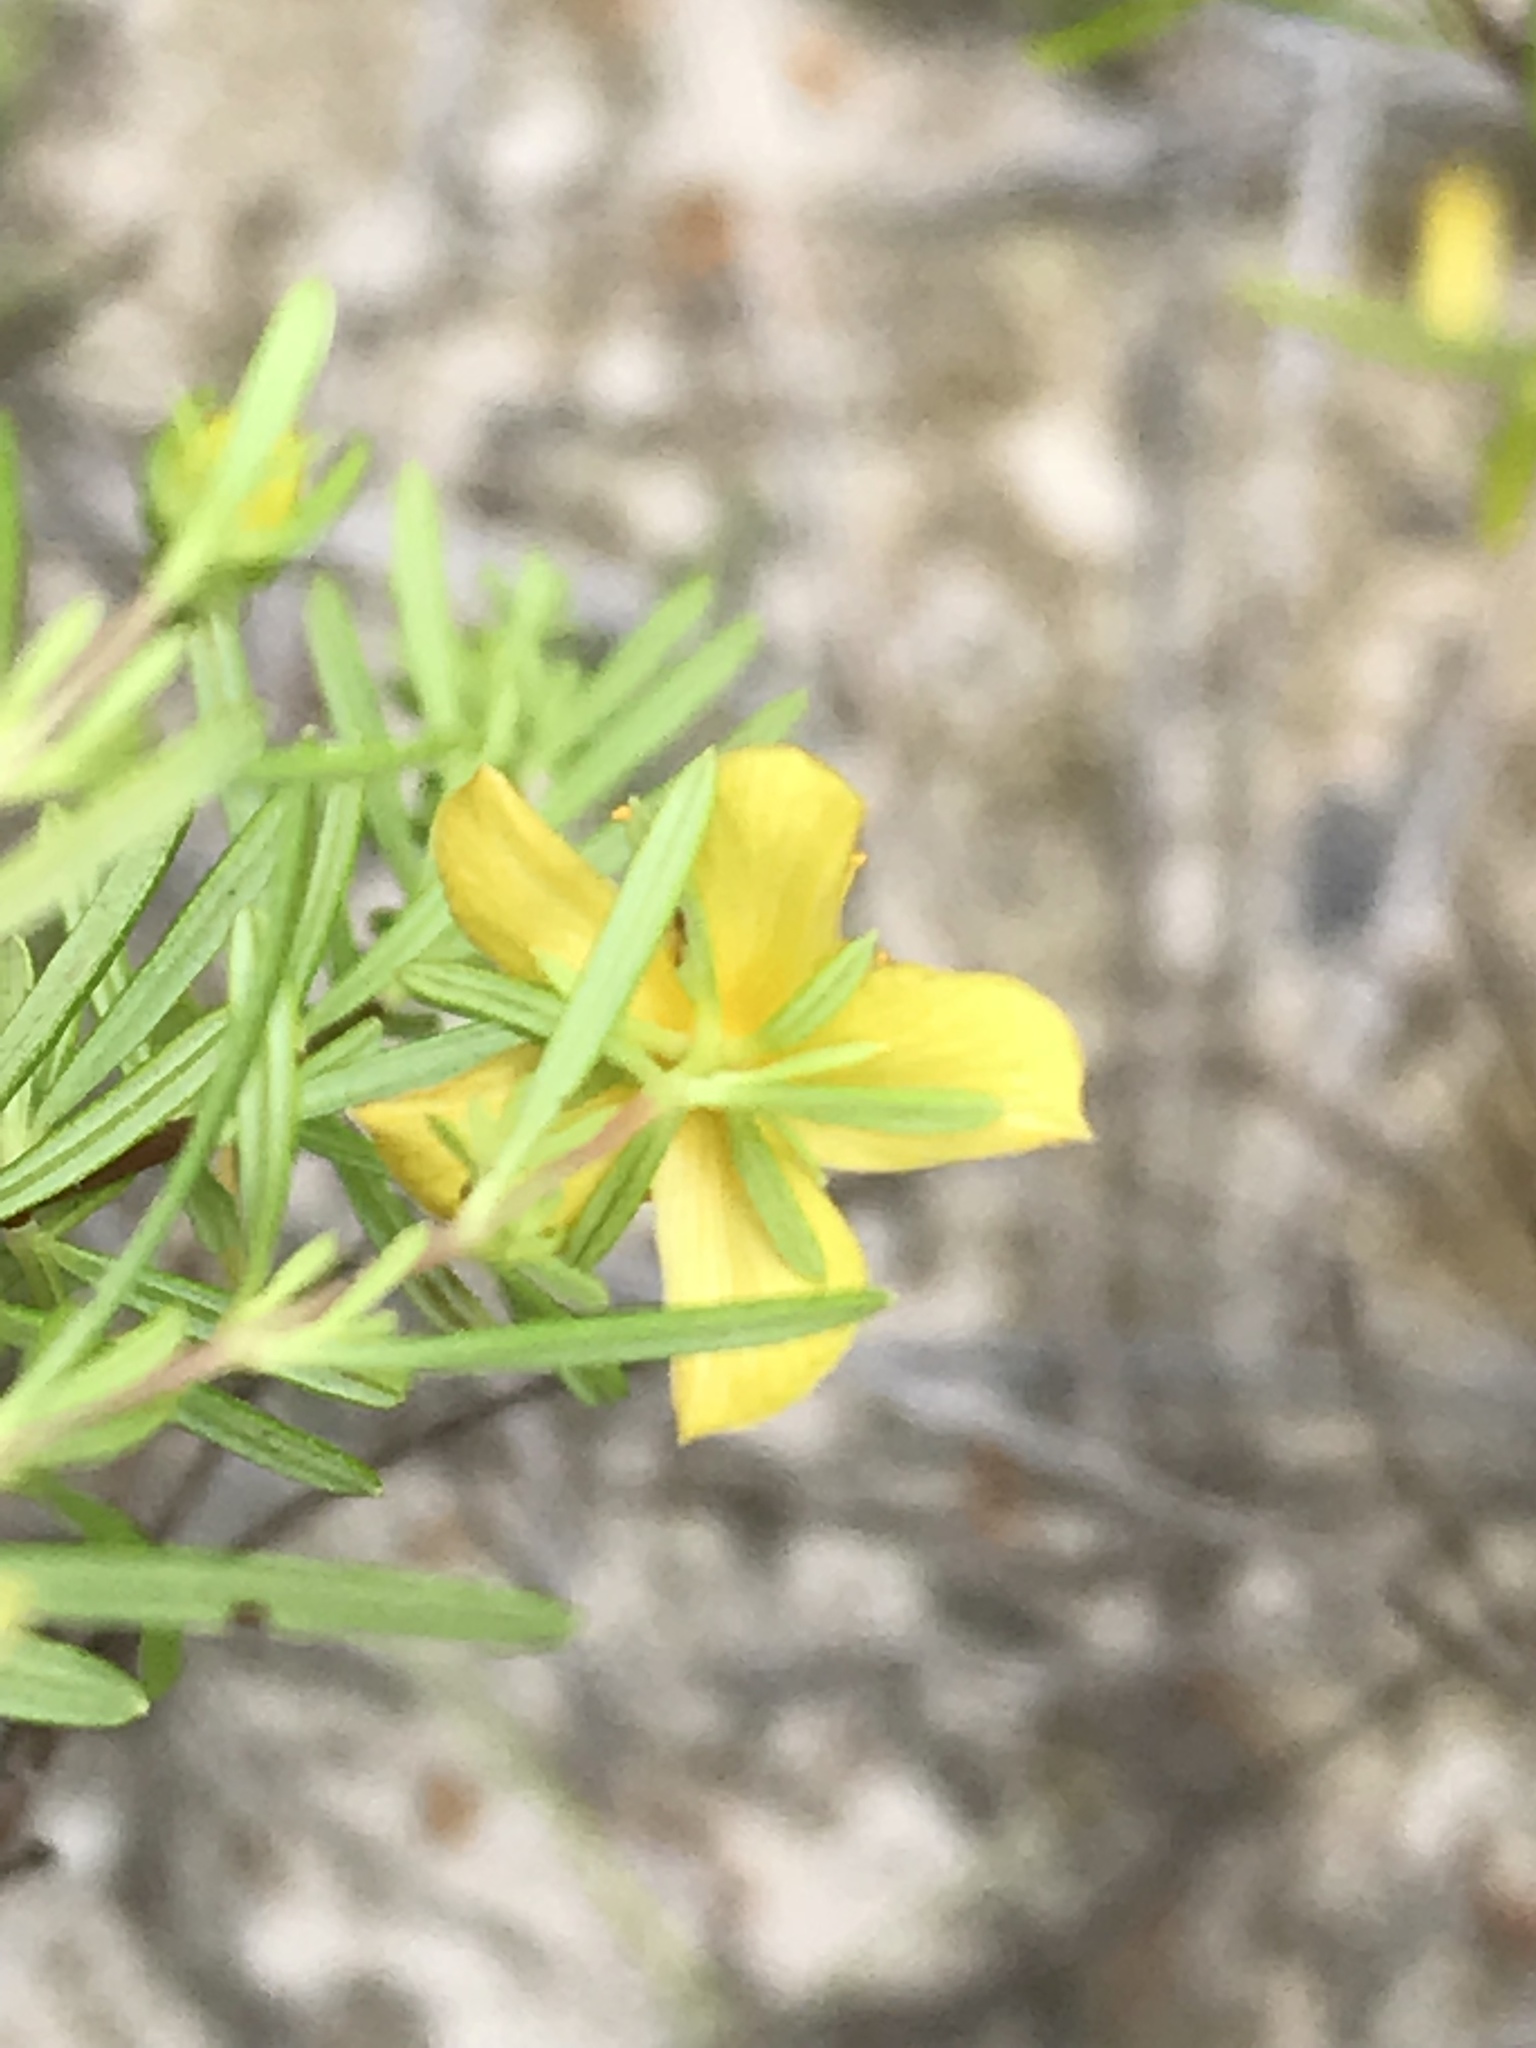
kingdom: Plantae
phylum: Tracheophyta
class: Magnoliopsida
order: Malpighiales
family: Hypericaceae
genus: Hypericum
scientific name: Hypericum galioides
